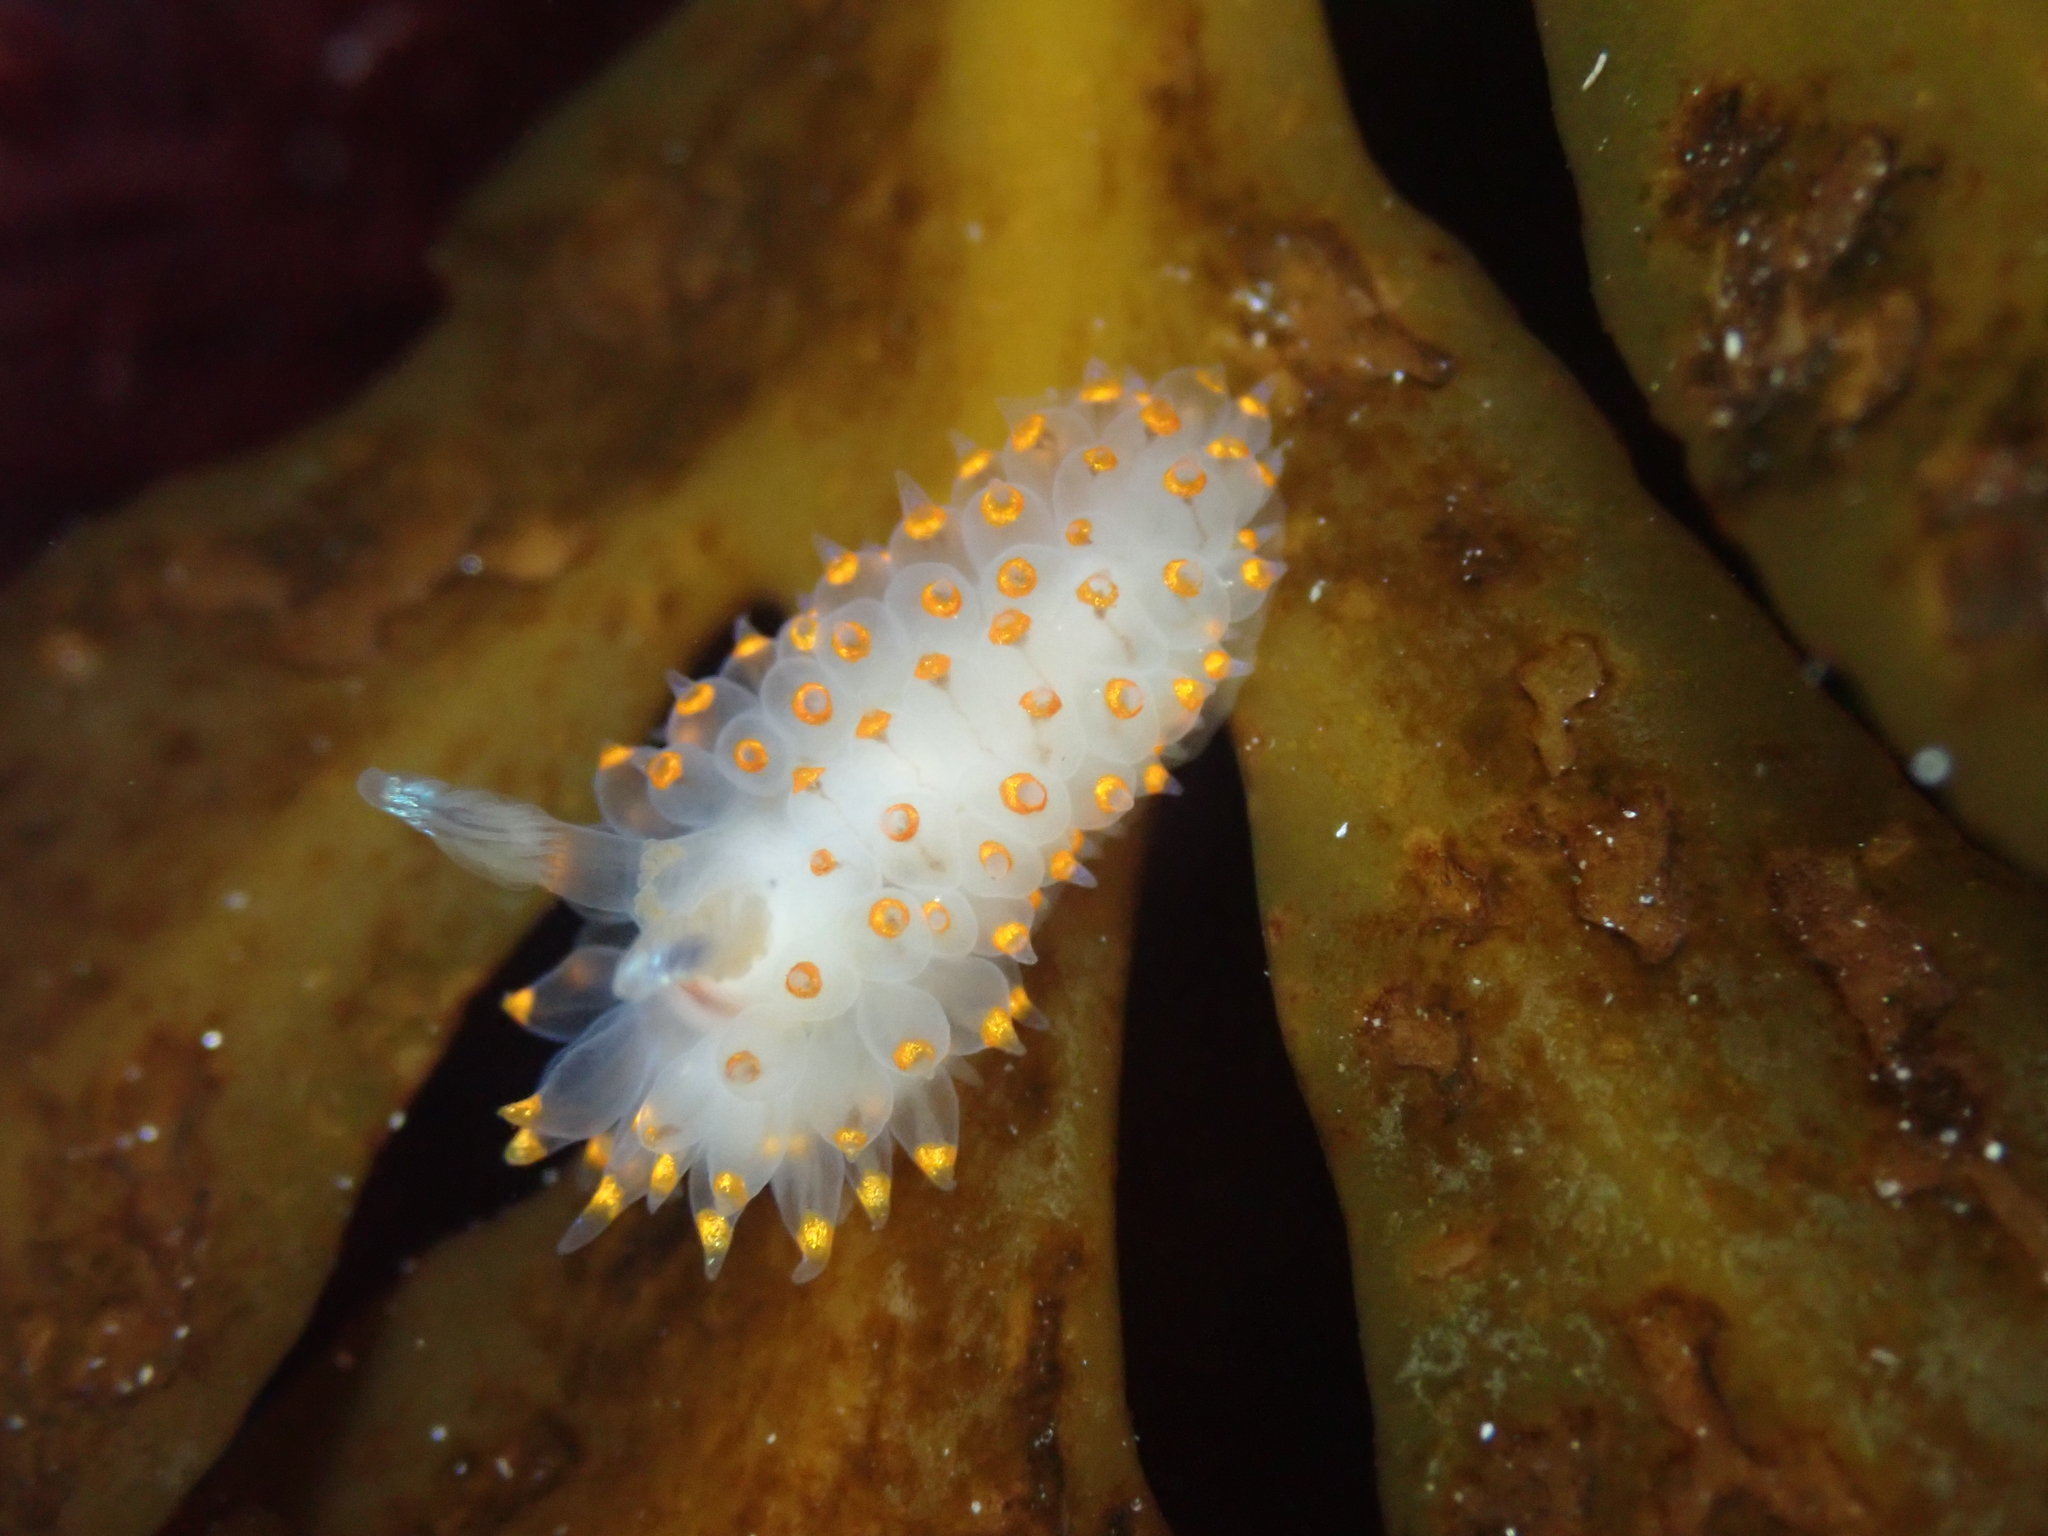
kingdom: Animalia
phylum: Mollusca
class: Gastropoda
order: Nudibranchia
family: Janolidae
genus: Antiopella
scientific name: Antiopella barbarensis
